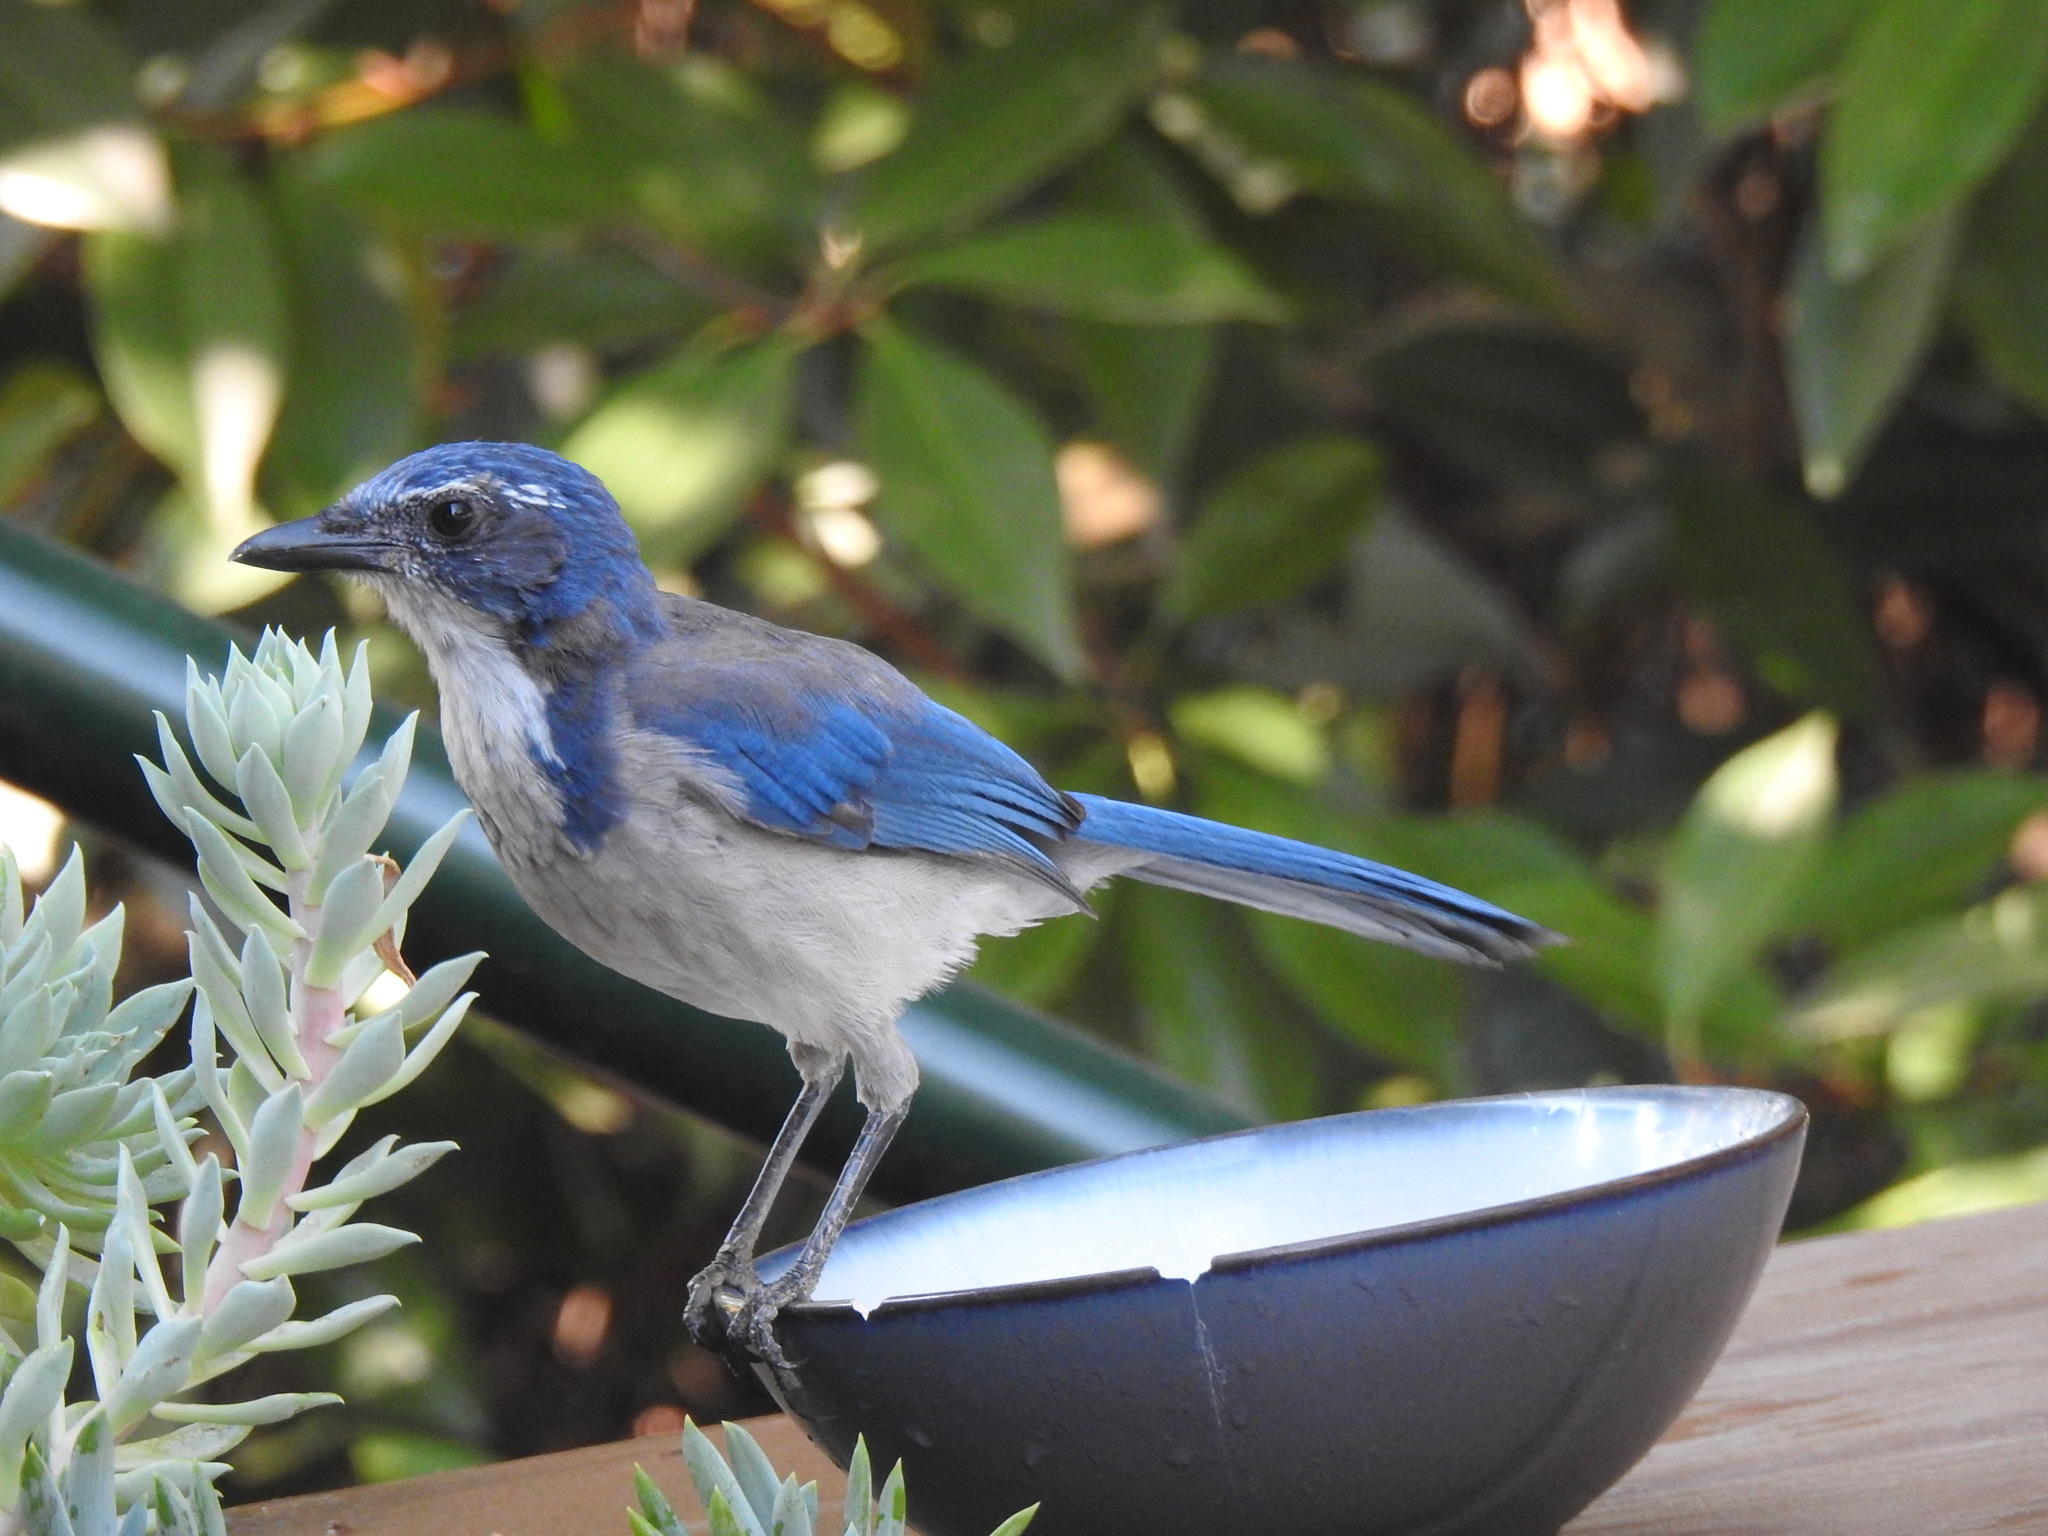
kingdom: Animalia
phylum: Chordata
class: Aves
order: Passeriformes
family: Corvidae
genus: Aphelocoma
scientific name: Aphelocoma californica
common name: California scrub-jay
